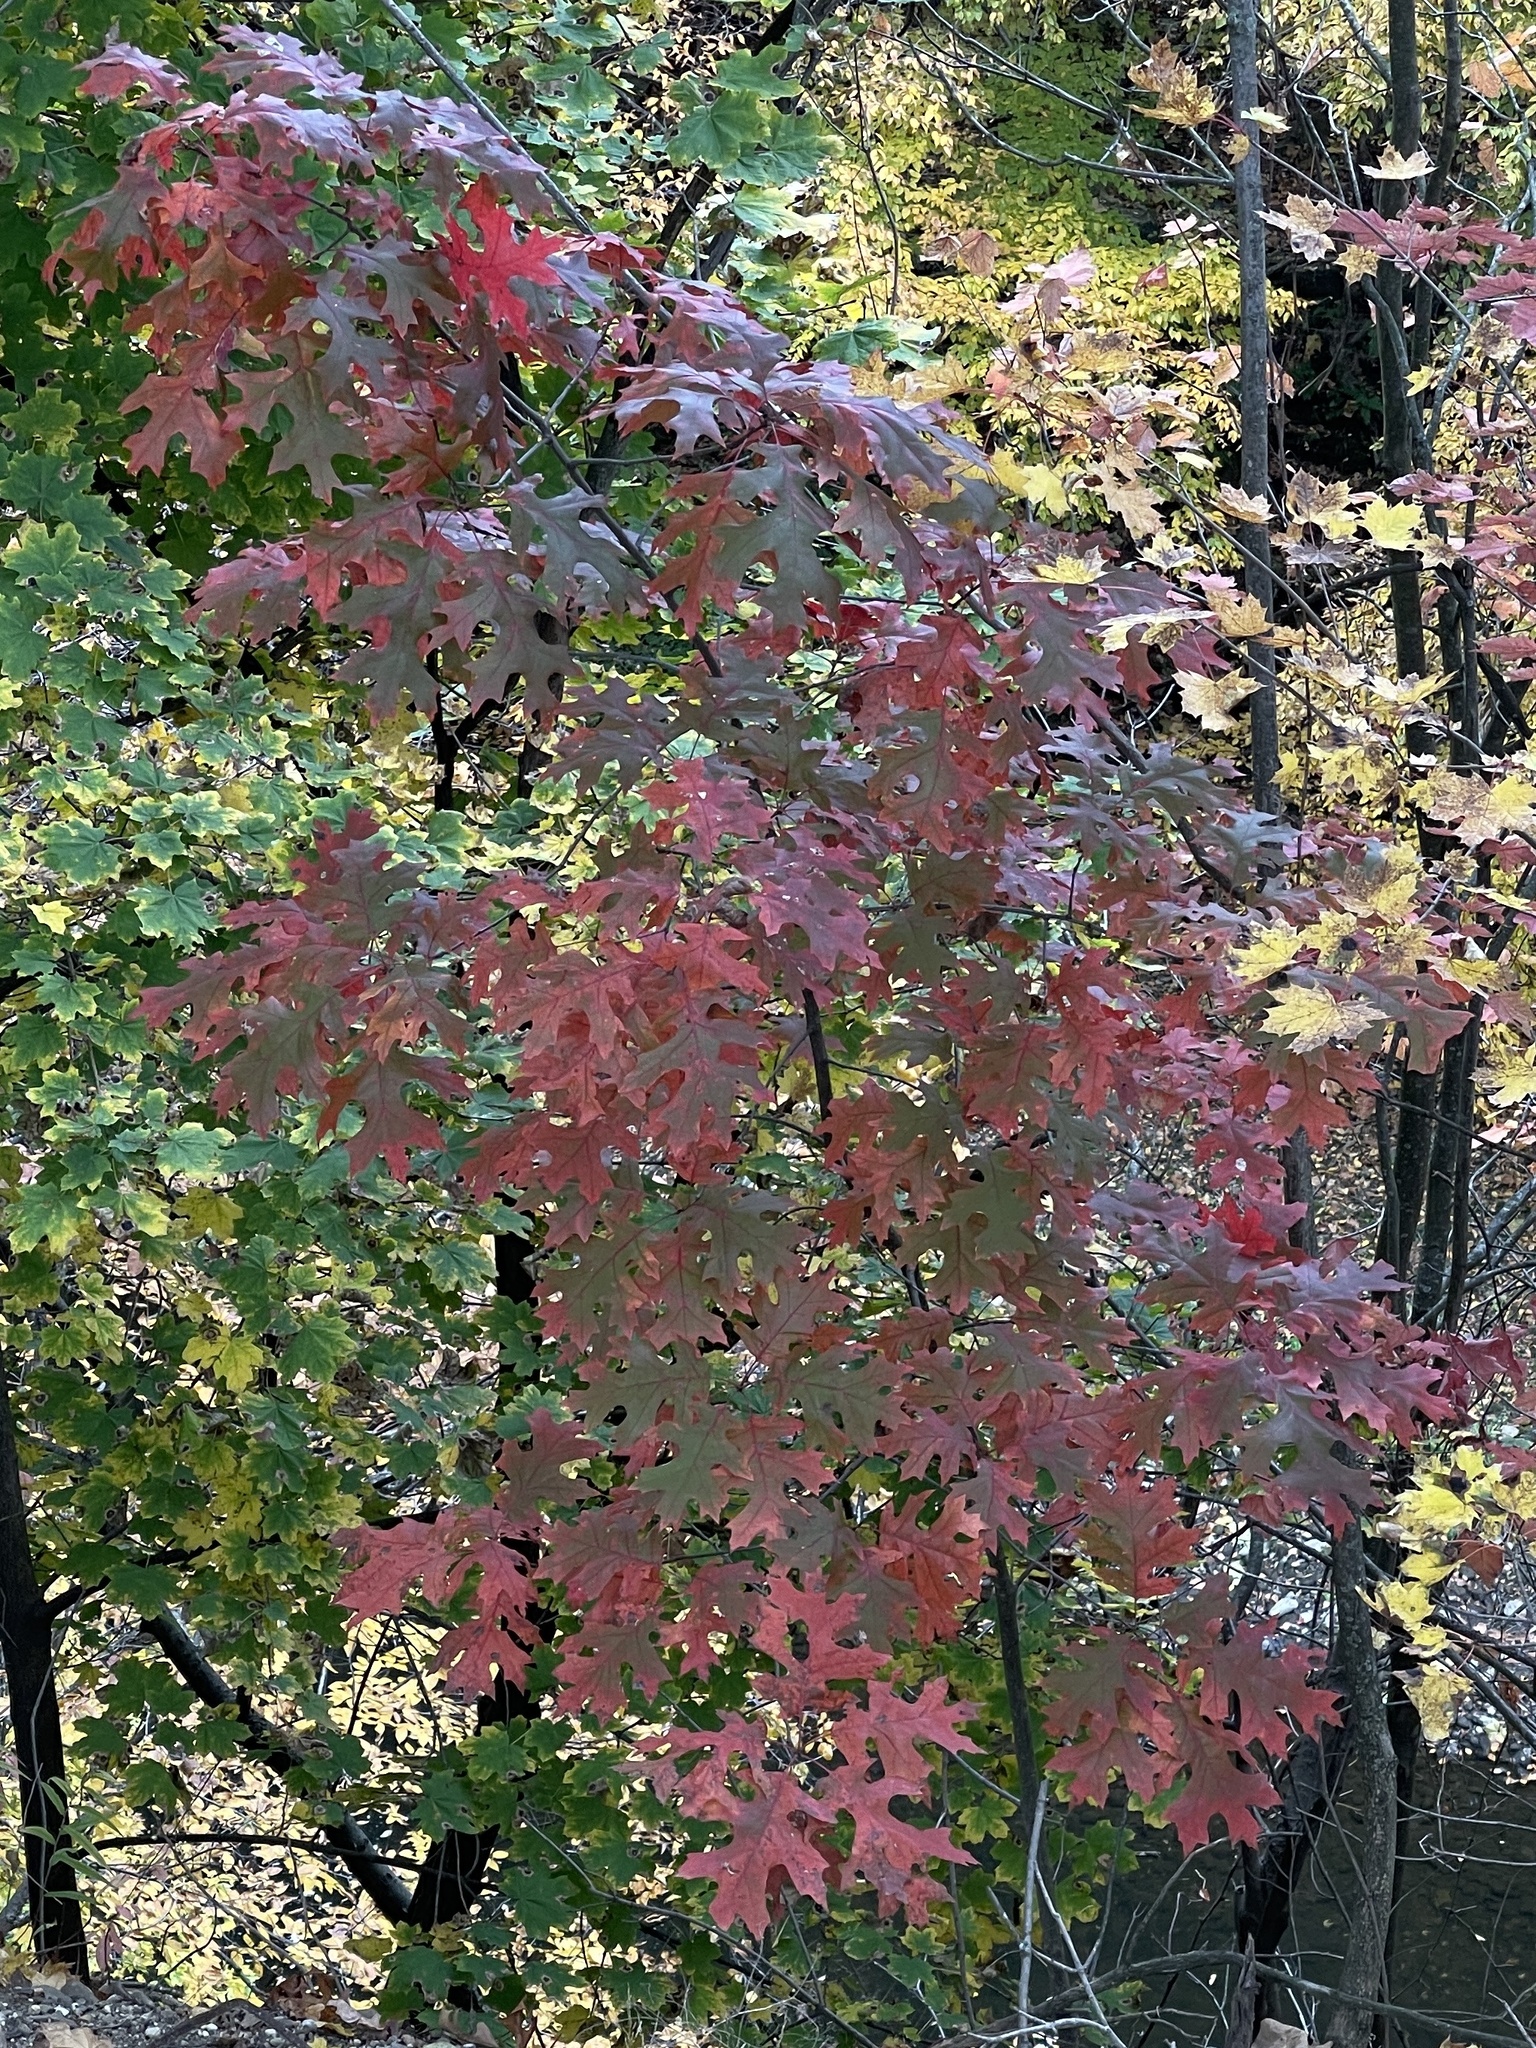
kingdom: Plantae
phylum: Tracheophyta
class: Magnoliopsida
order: Fagales
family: Fagaceae
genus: Quercus
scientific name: Quercus coccinea
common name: Scarlet oak
